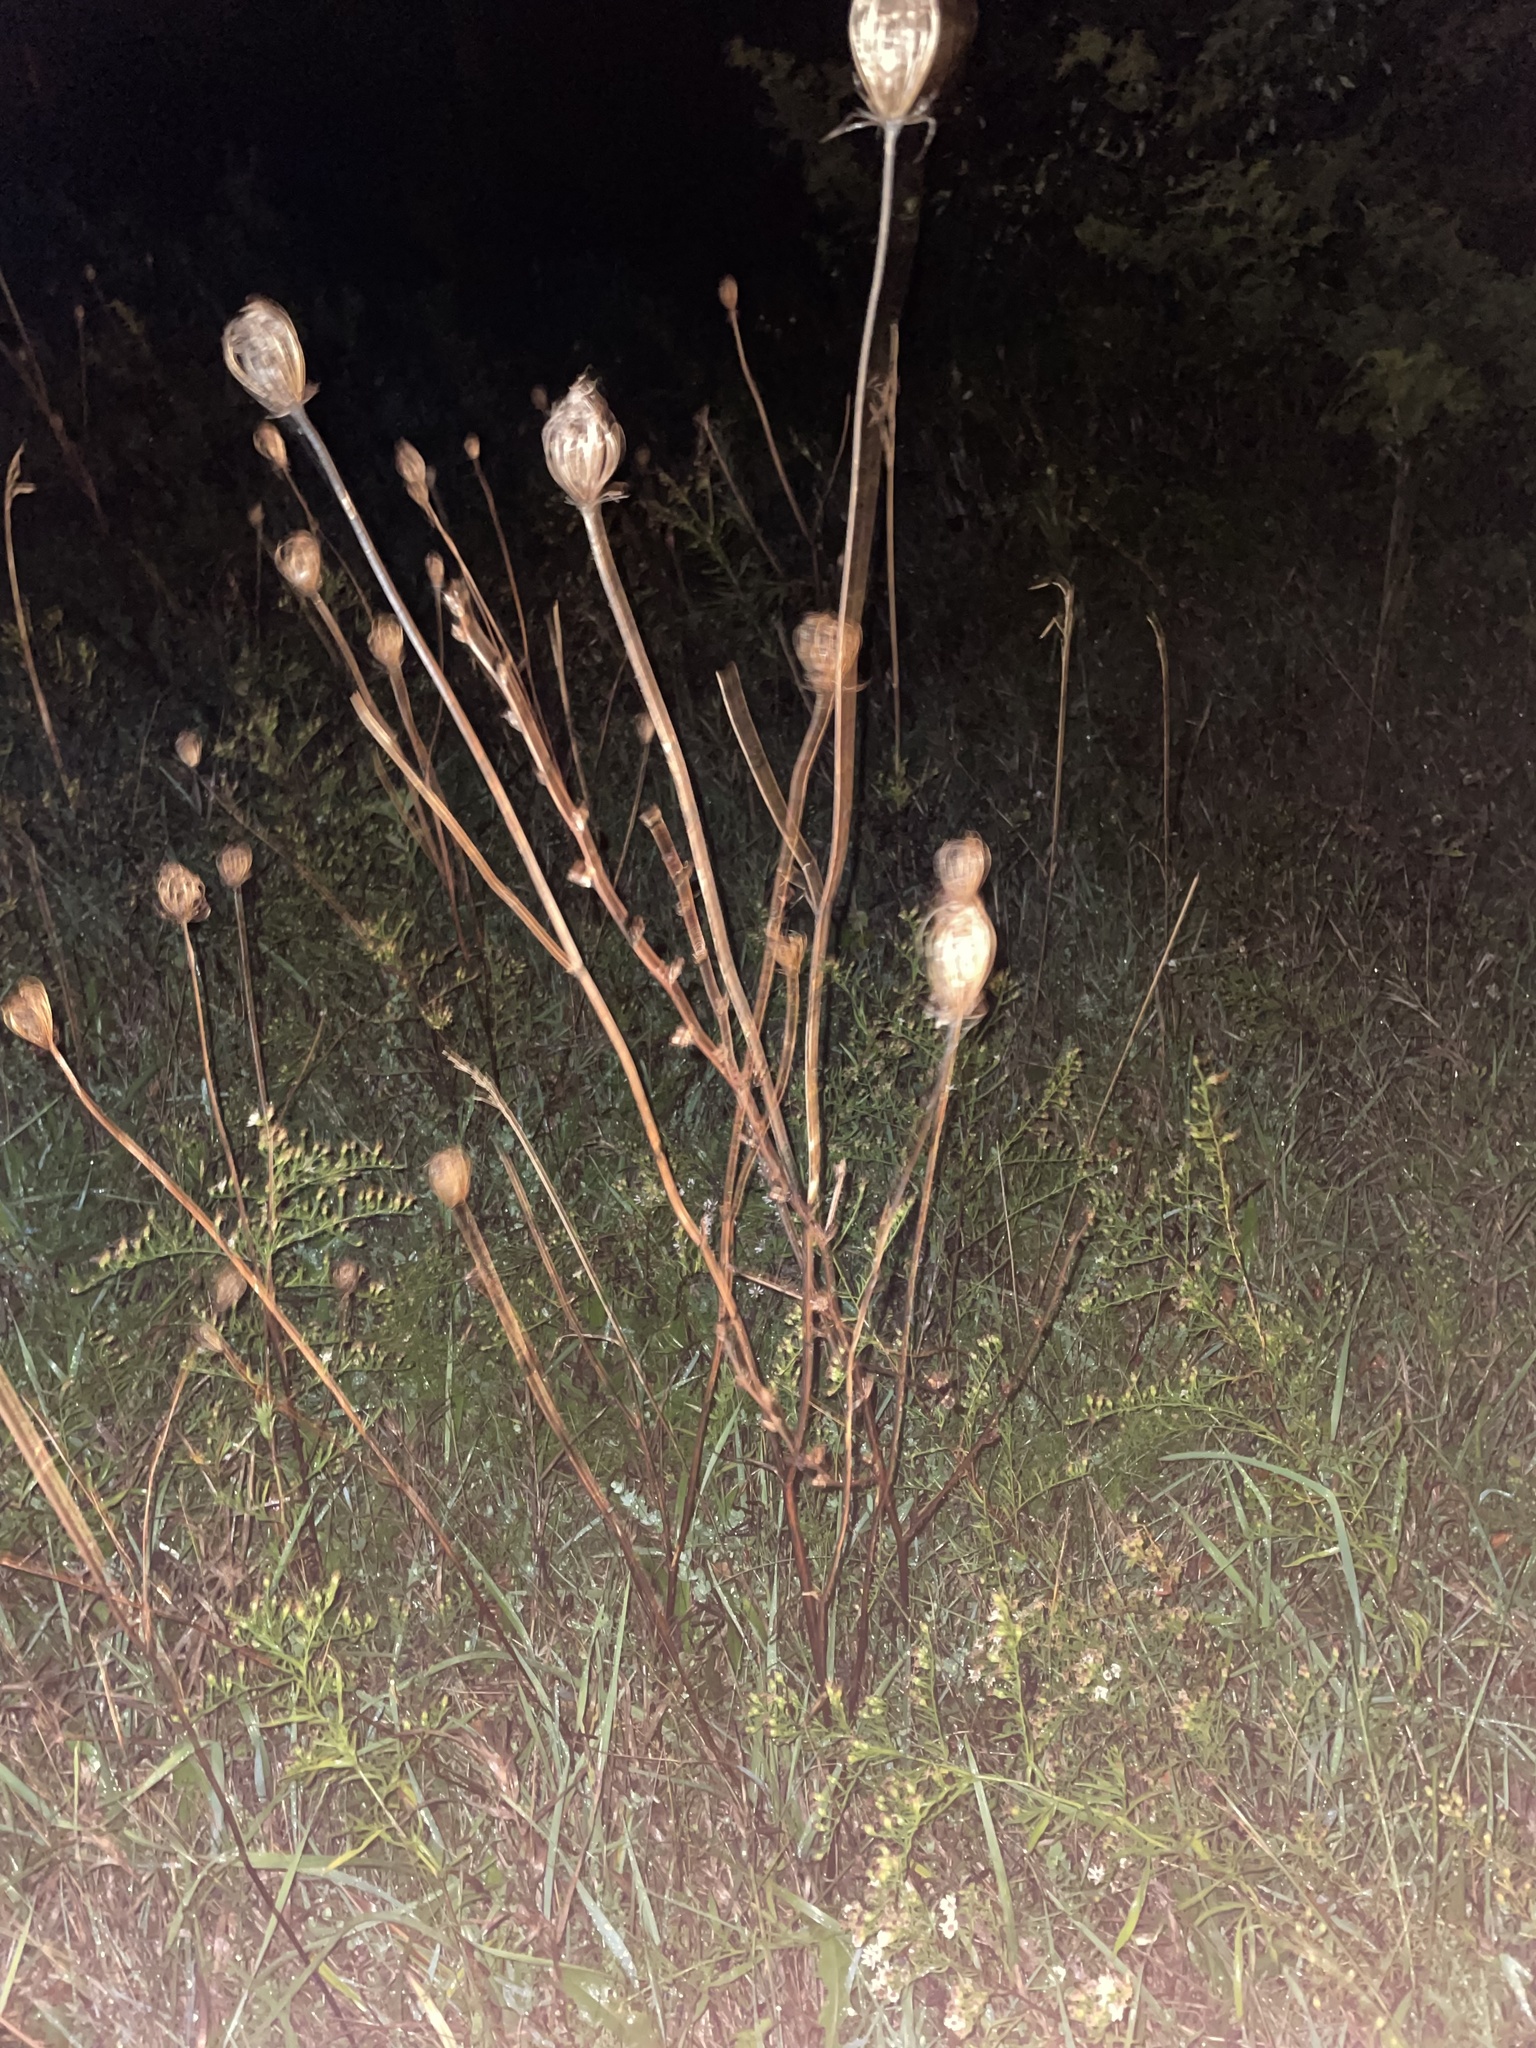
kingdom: Plantae
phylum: Tracheophyta
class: Magnoliopsida
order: Apiales
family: Apiaceae
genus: Daucus
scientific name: Daucus carota
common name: Wild carrot
